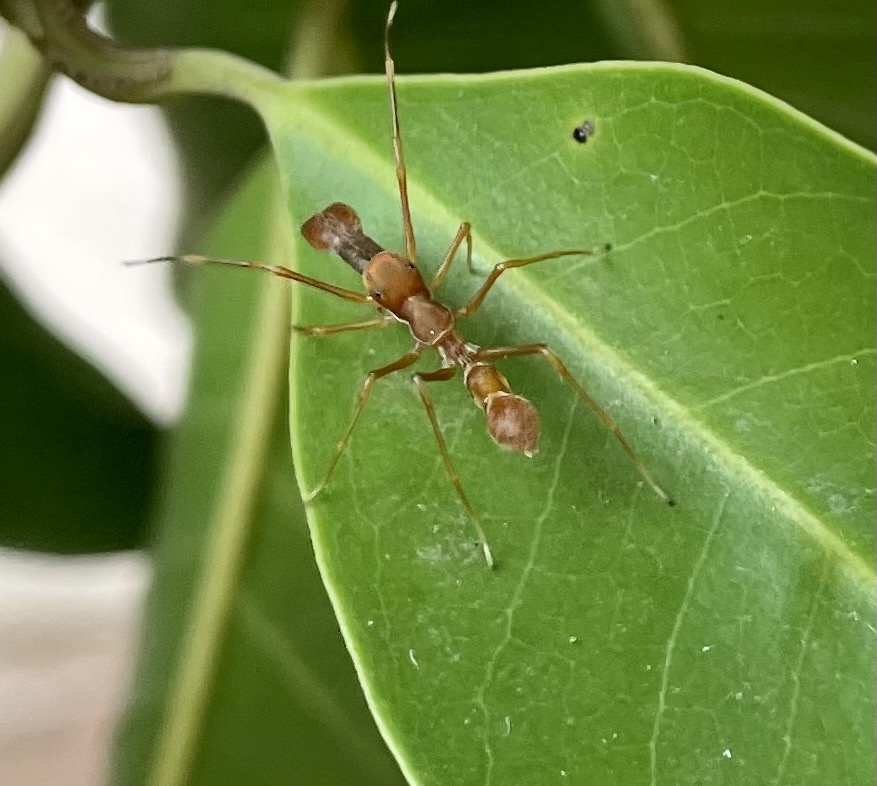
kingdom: Animalia
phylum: Arthropoda
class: Arachnida
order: Araneae
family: Salticidae
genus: Myrmaplata
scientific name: Myrmaplata plataleoides
